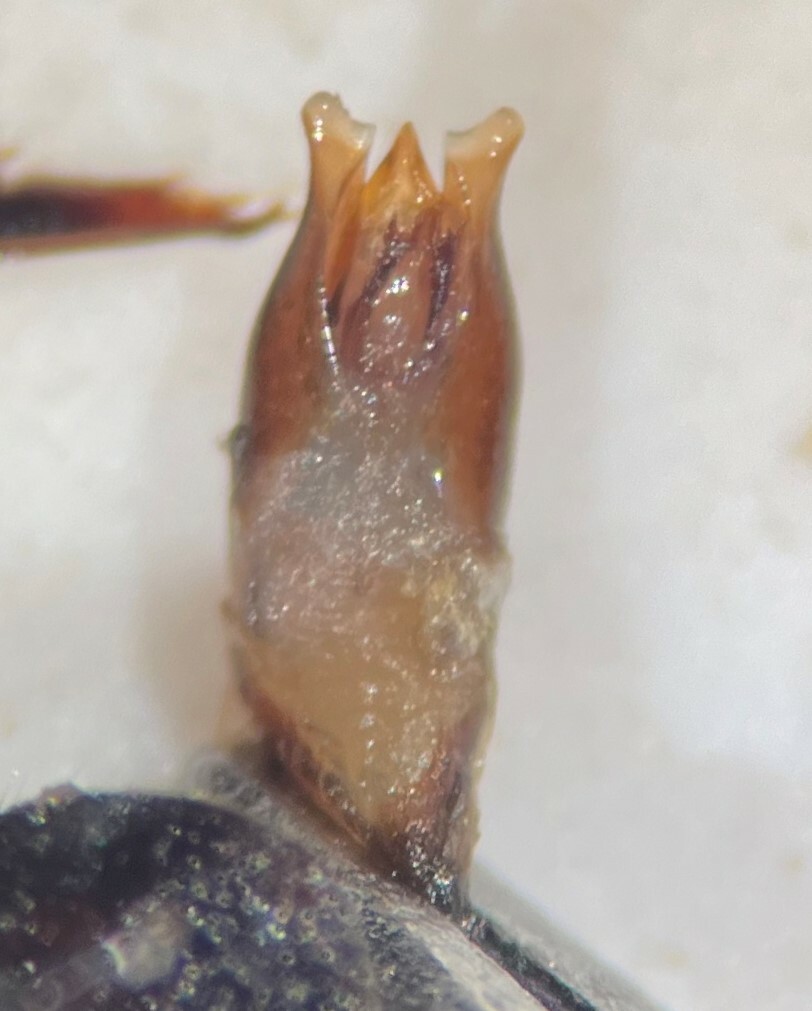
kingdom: Animalia
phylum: Arthropoda
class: Insecta
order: Coleoptera
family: Hydrophilidae
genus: Tropisternus
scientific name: Tropisternus apicipalpis
